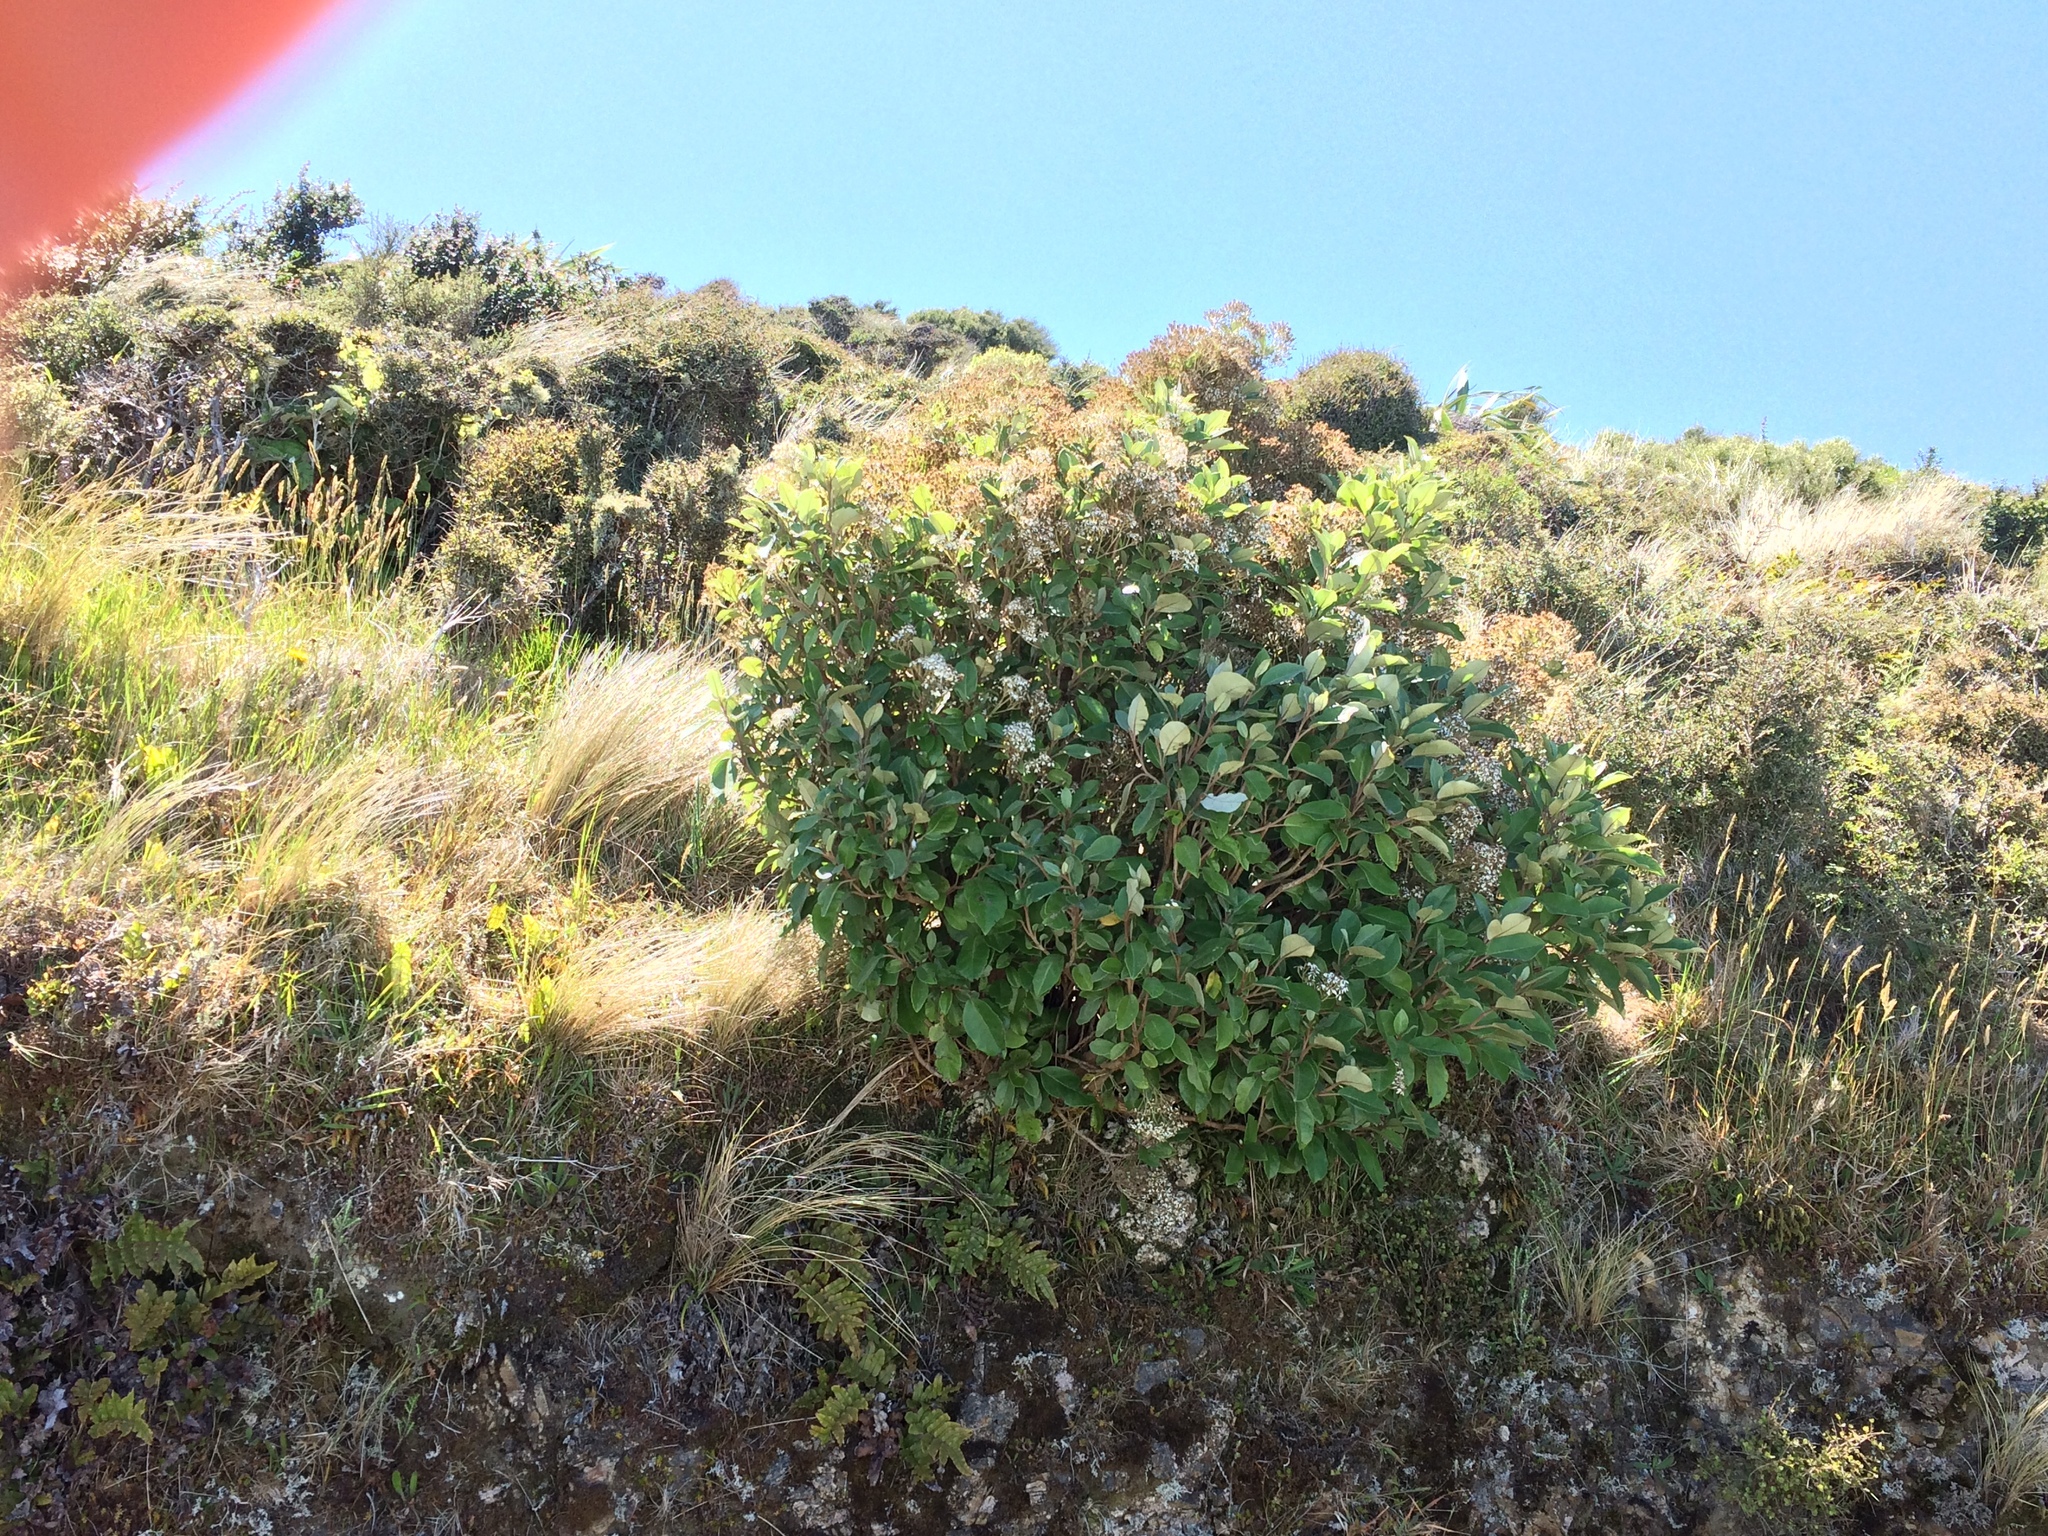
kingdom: Plantae
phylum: Tracheophyta
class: Magnoliopsida
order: Asterales
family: Asteraceae
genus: Olearia
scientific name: Olearia arborescens
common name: Glossy tree daisy
